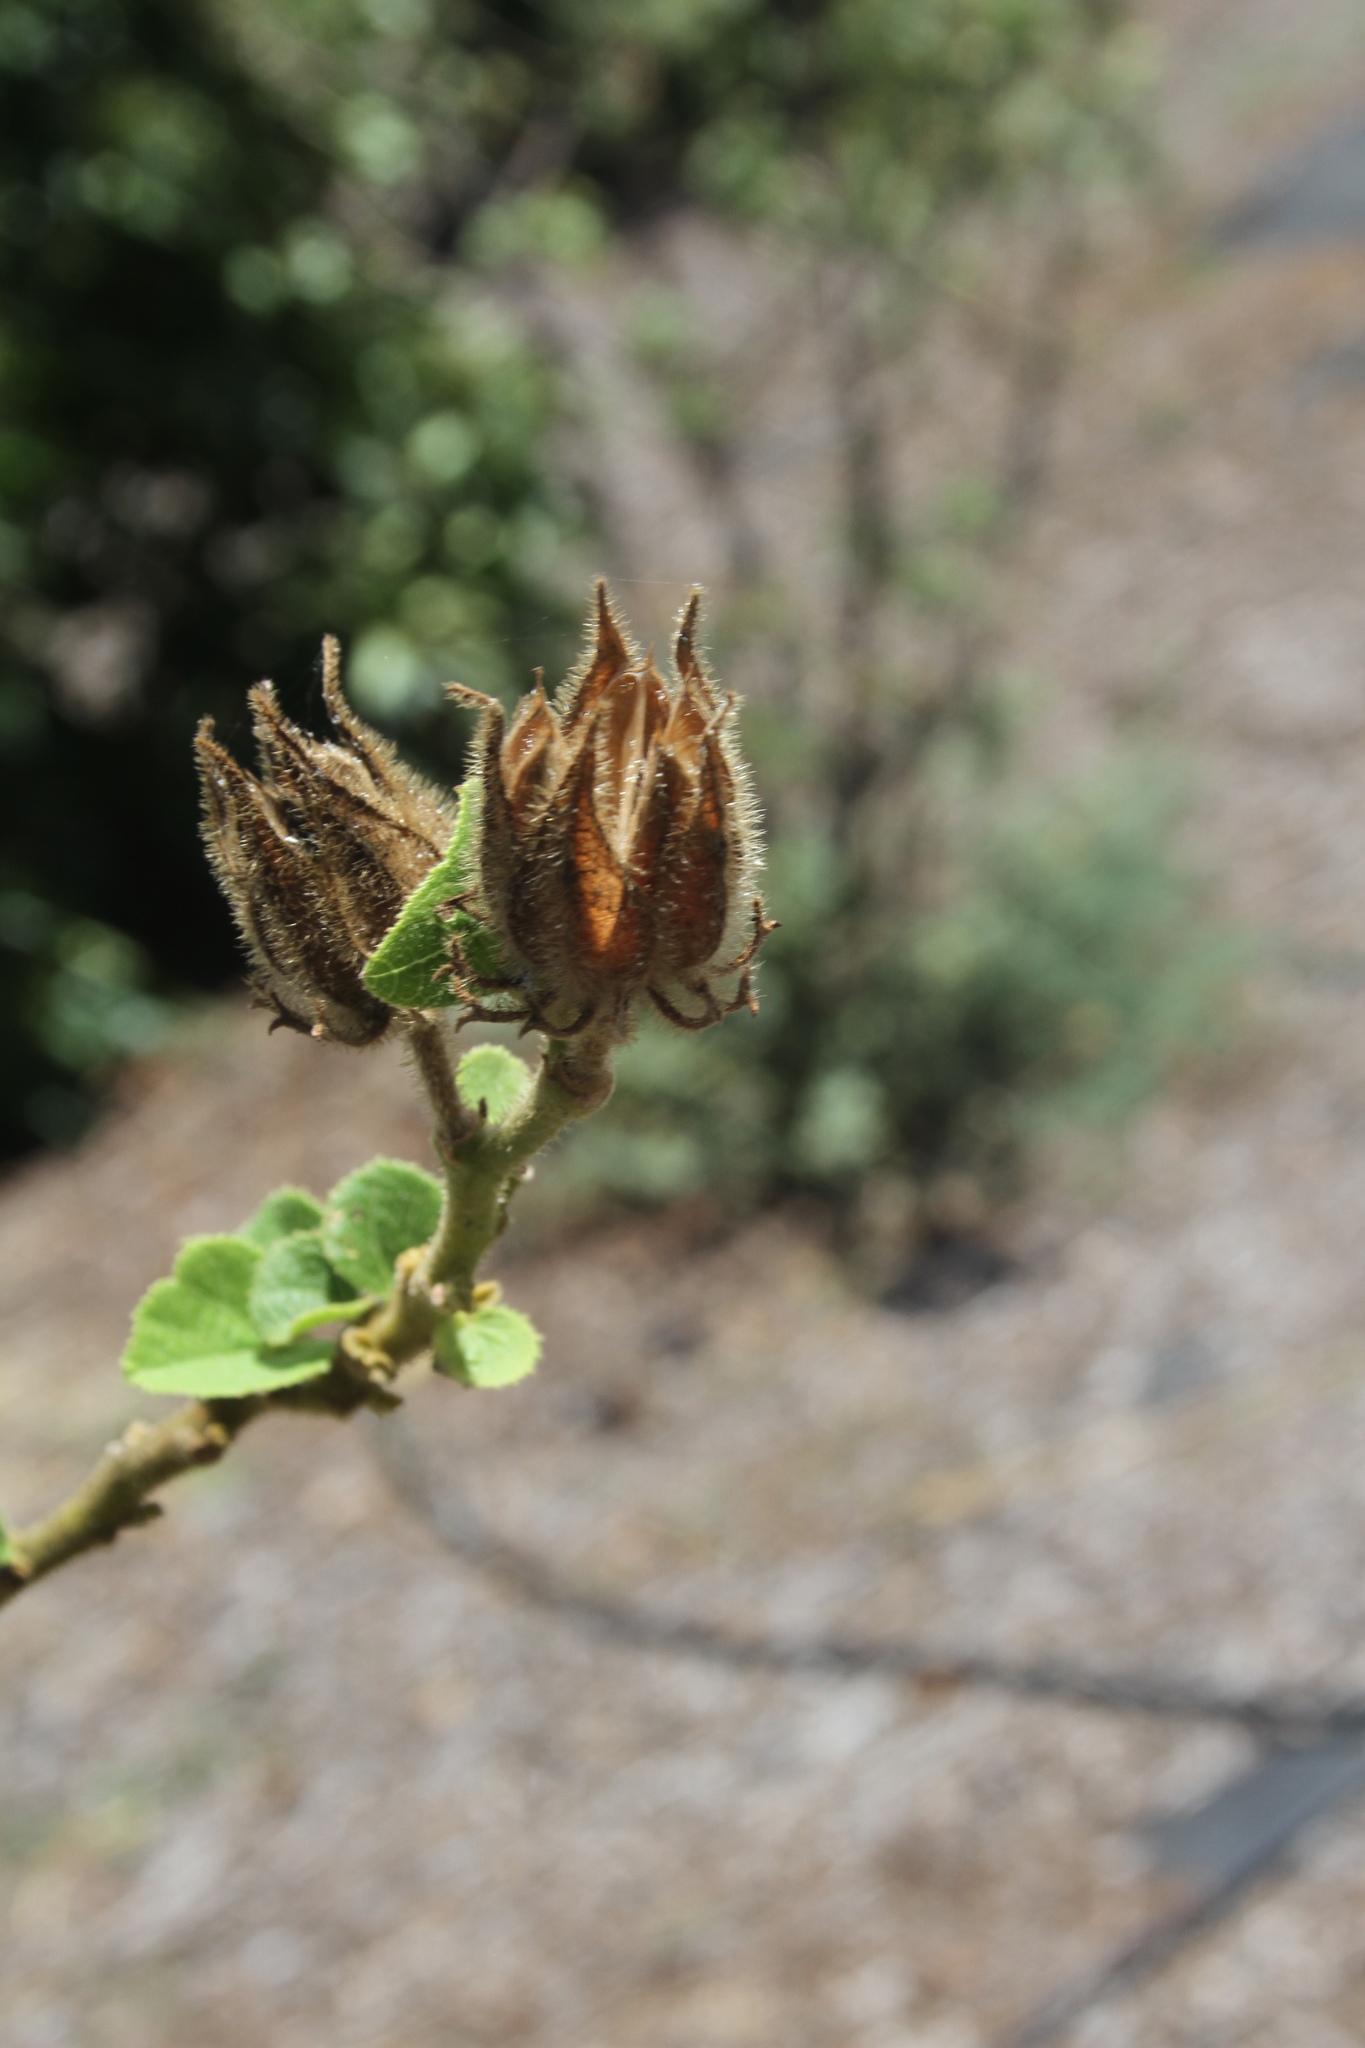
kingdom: Plantae
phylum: Tracheophyta
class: Magnoliopsida
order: Ranunculales
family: Papaveraceae
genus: Argemone
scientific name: Argemone glauca
